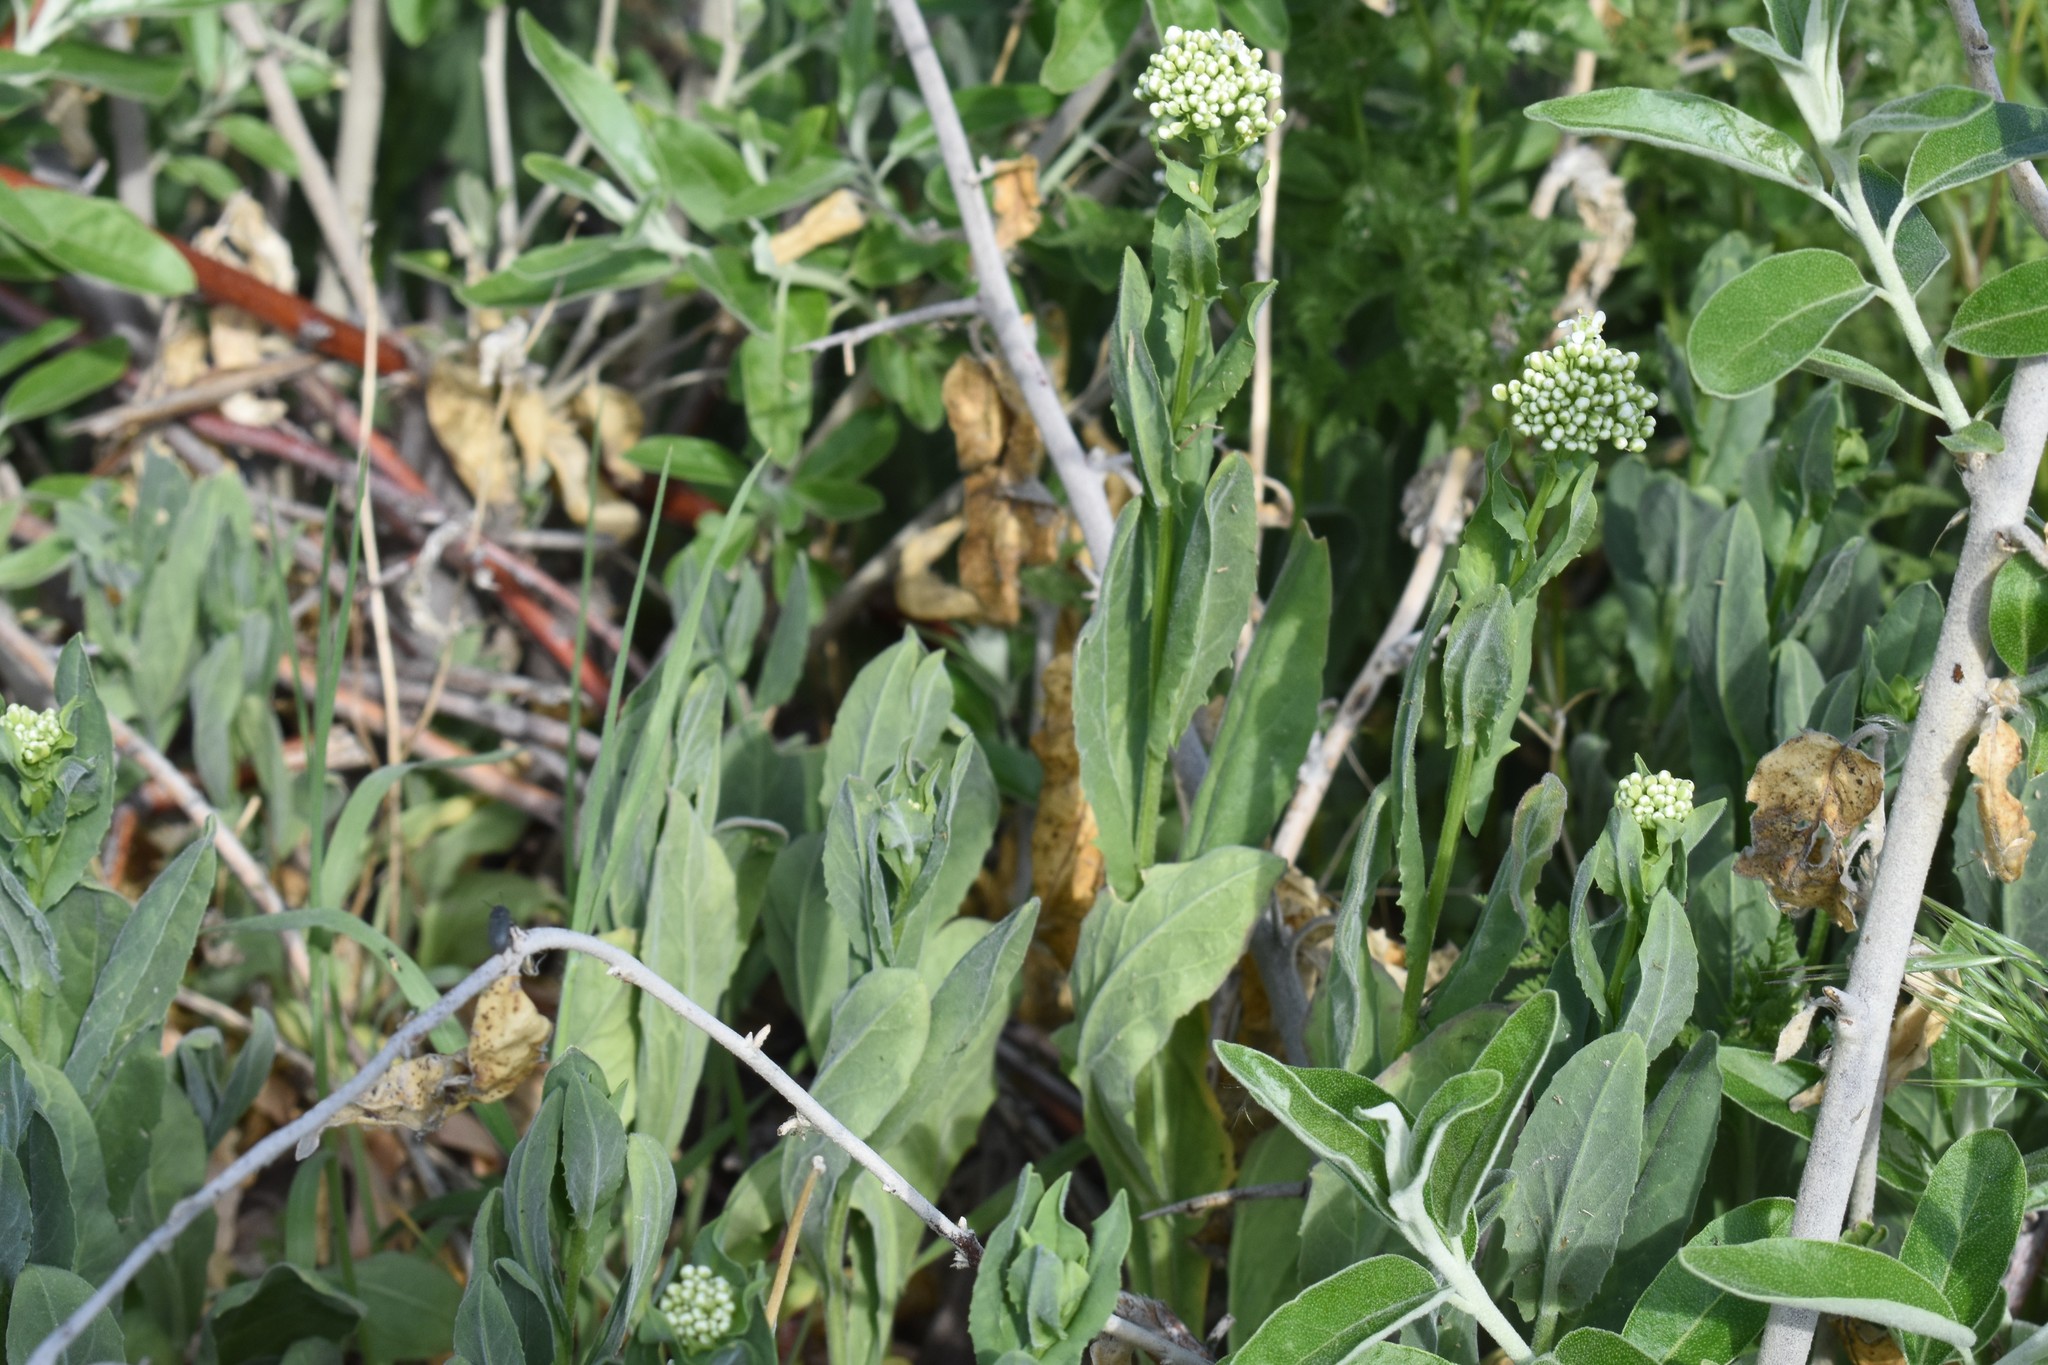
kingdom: Plantae
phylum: Tracheophyta
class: Magnoliopsida
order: Brassicales
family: Brassicaceae
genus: Lepidium
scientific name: Lepidium draba
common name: Hoary cress
